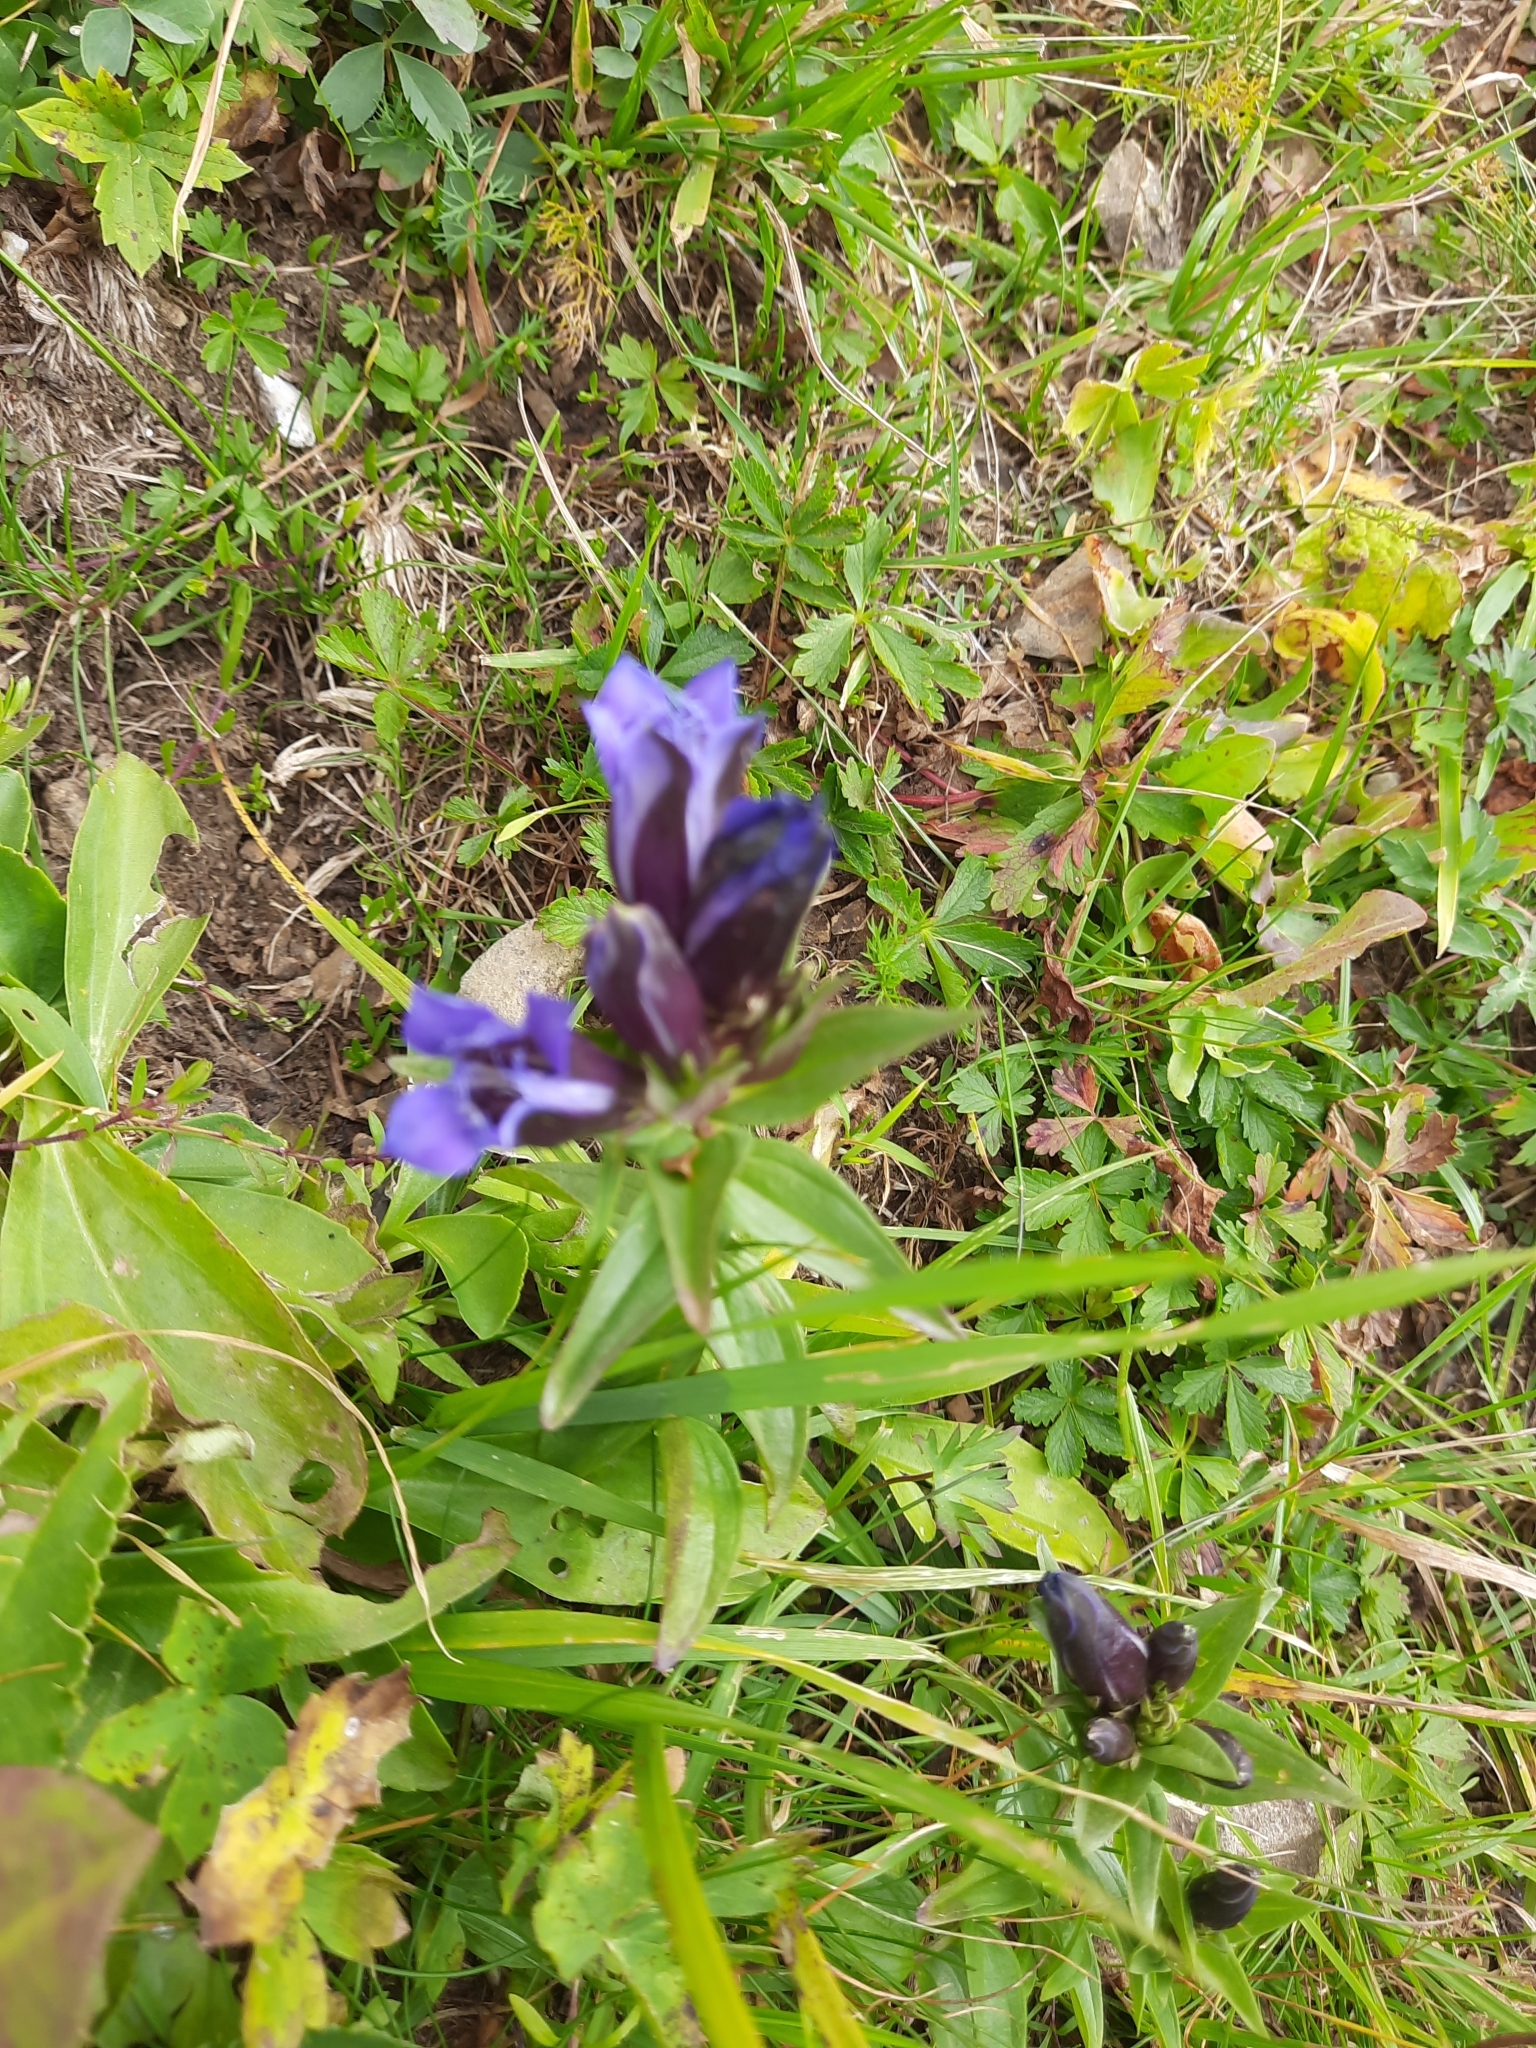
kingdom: Plantae
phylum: Tracheophyta
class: Magnoliopsida
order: Gentianales
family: Gentianaceae
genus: Gentiana
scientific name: Gentiana septemfida
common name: Crested gentian
